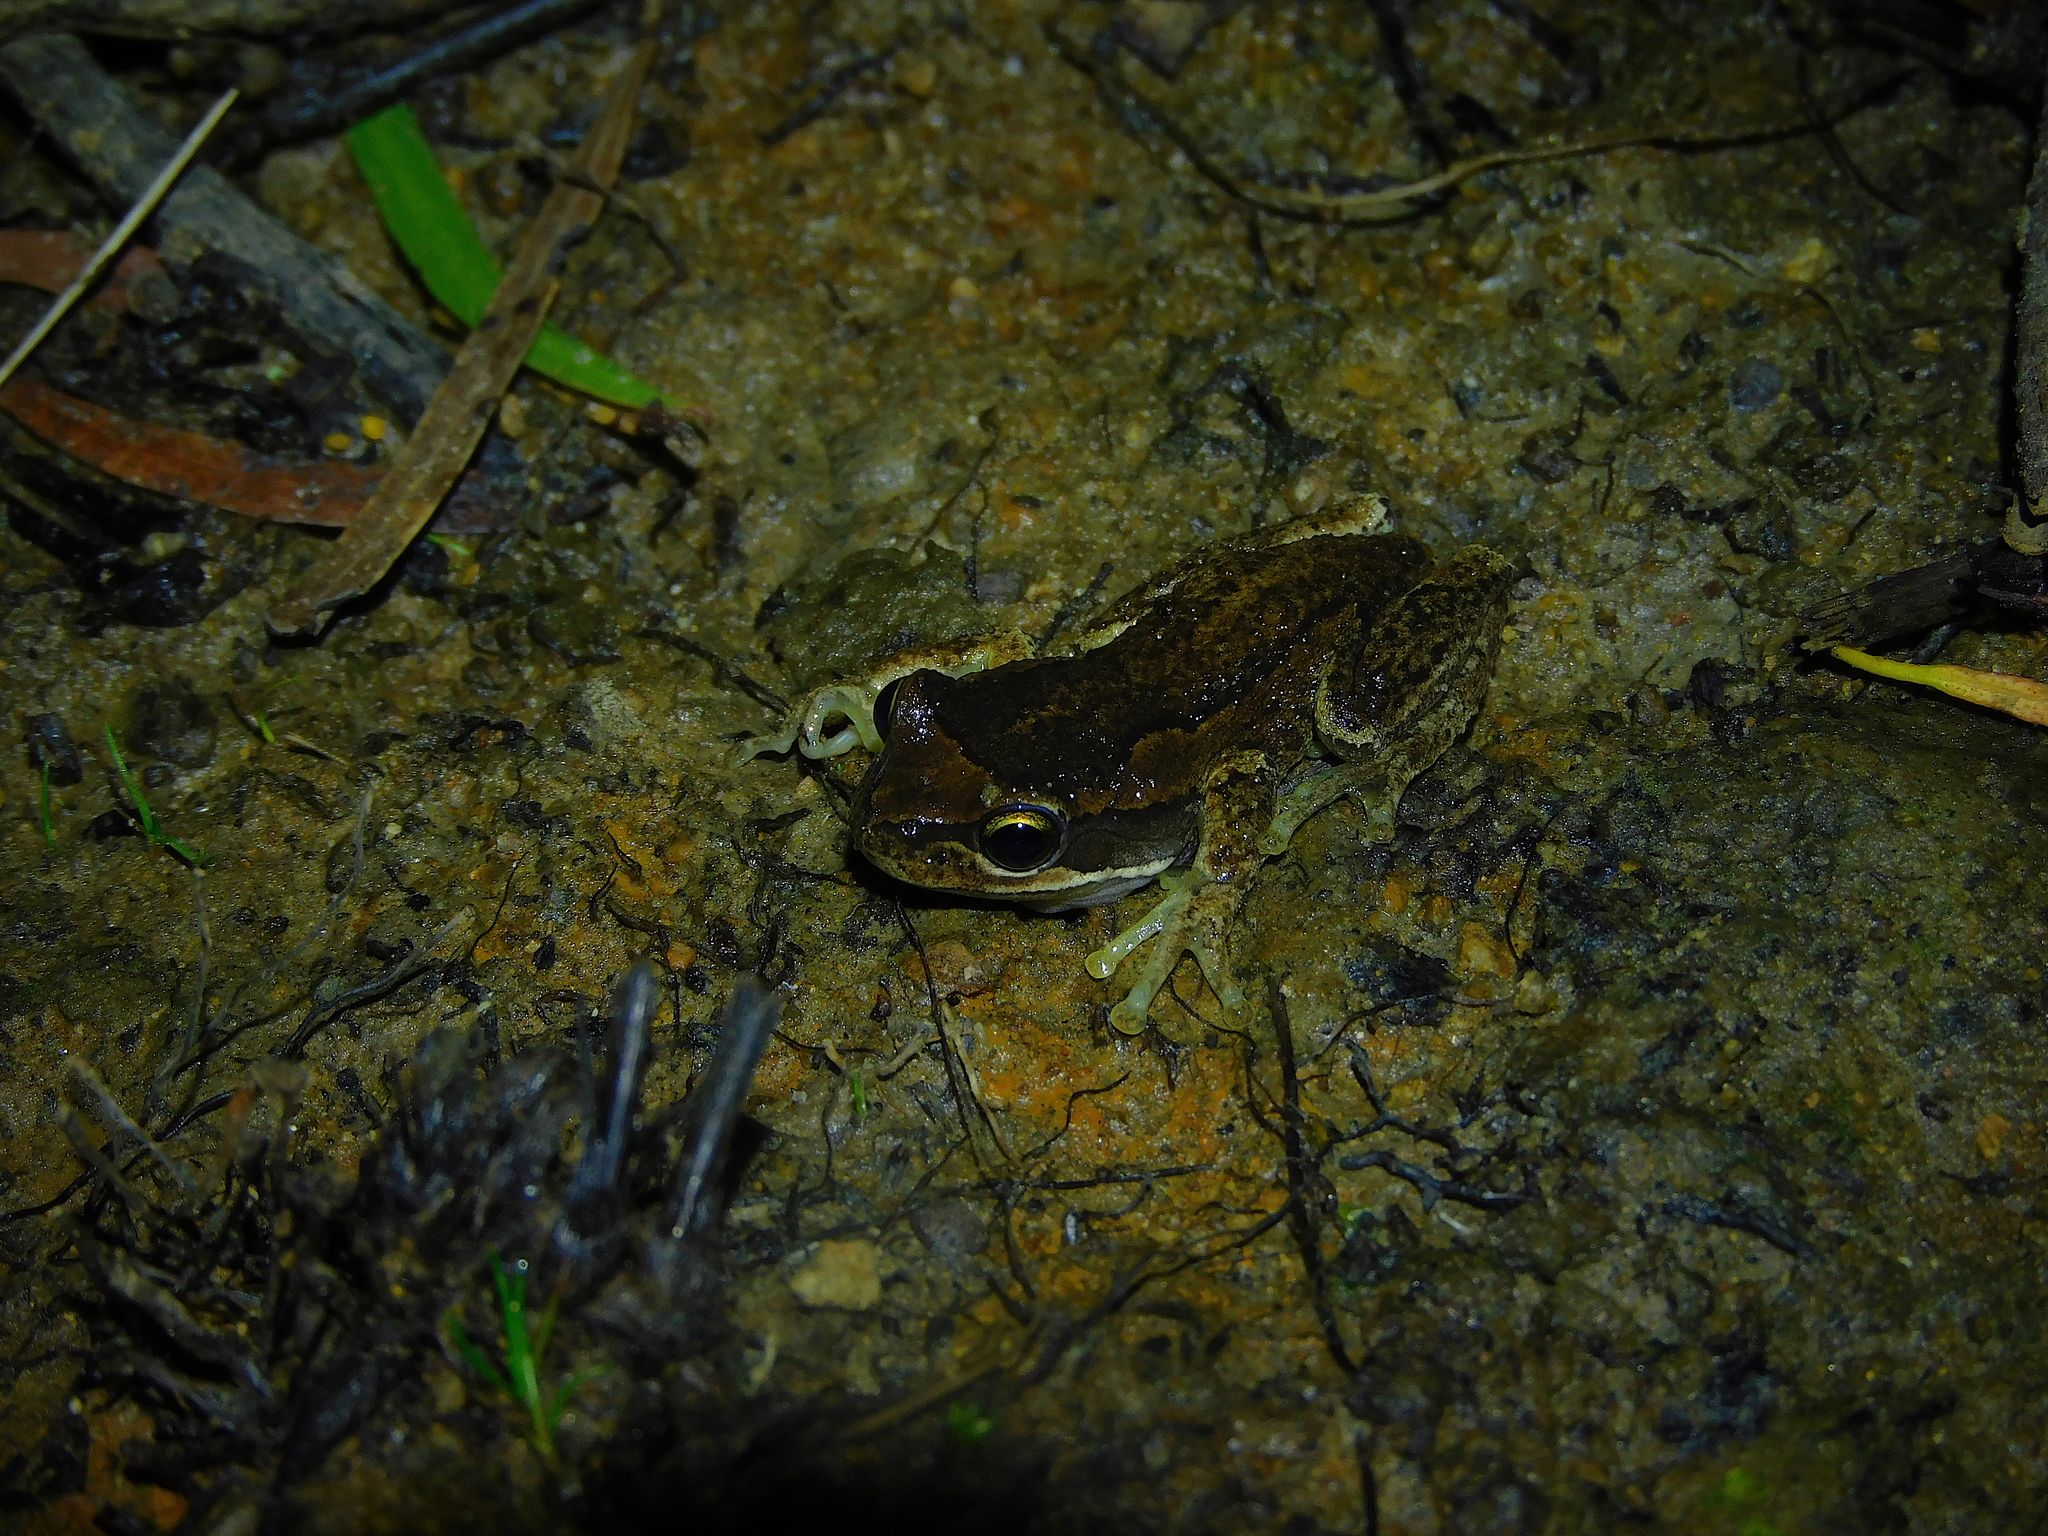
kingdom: Animalia
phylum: Chordata
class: Amphibia
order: Anura
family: Pelodryadidae
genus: Litoria
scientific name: Litoria ewingii
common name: Southern brown tree frog
